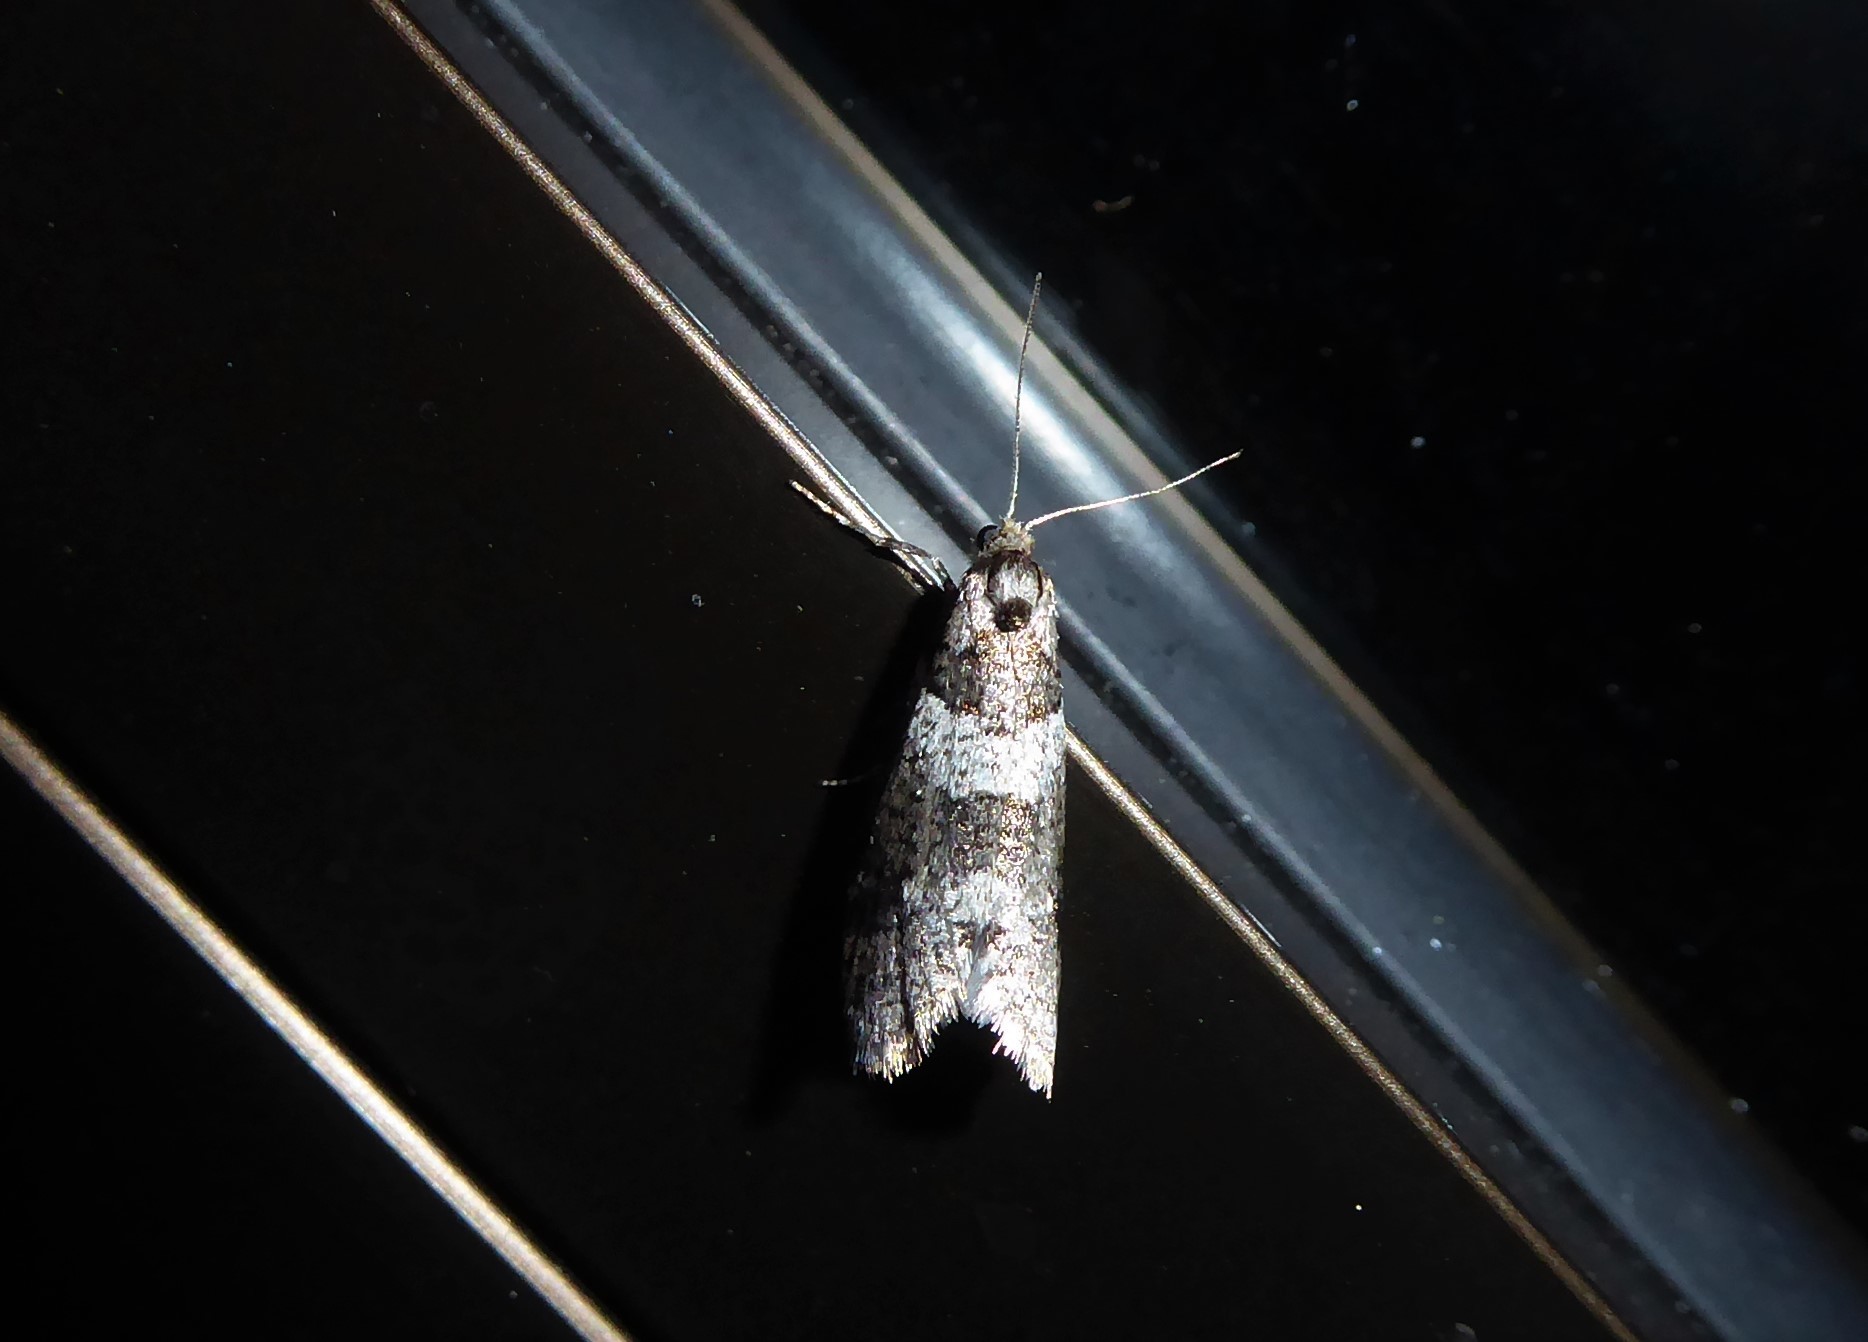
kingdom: Animalia
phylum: Arthropoda
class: Insecta
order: Lepidoptera
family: Psychidae
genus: Lepidoscia
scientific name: Lepidoscia heliochares
